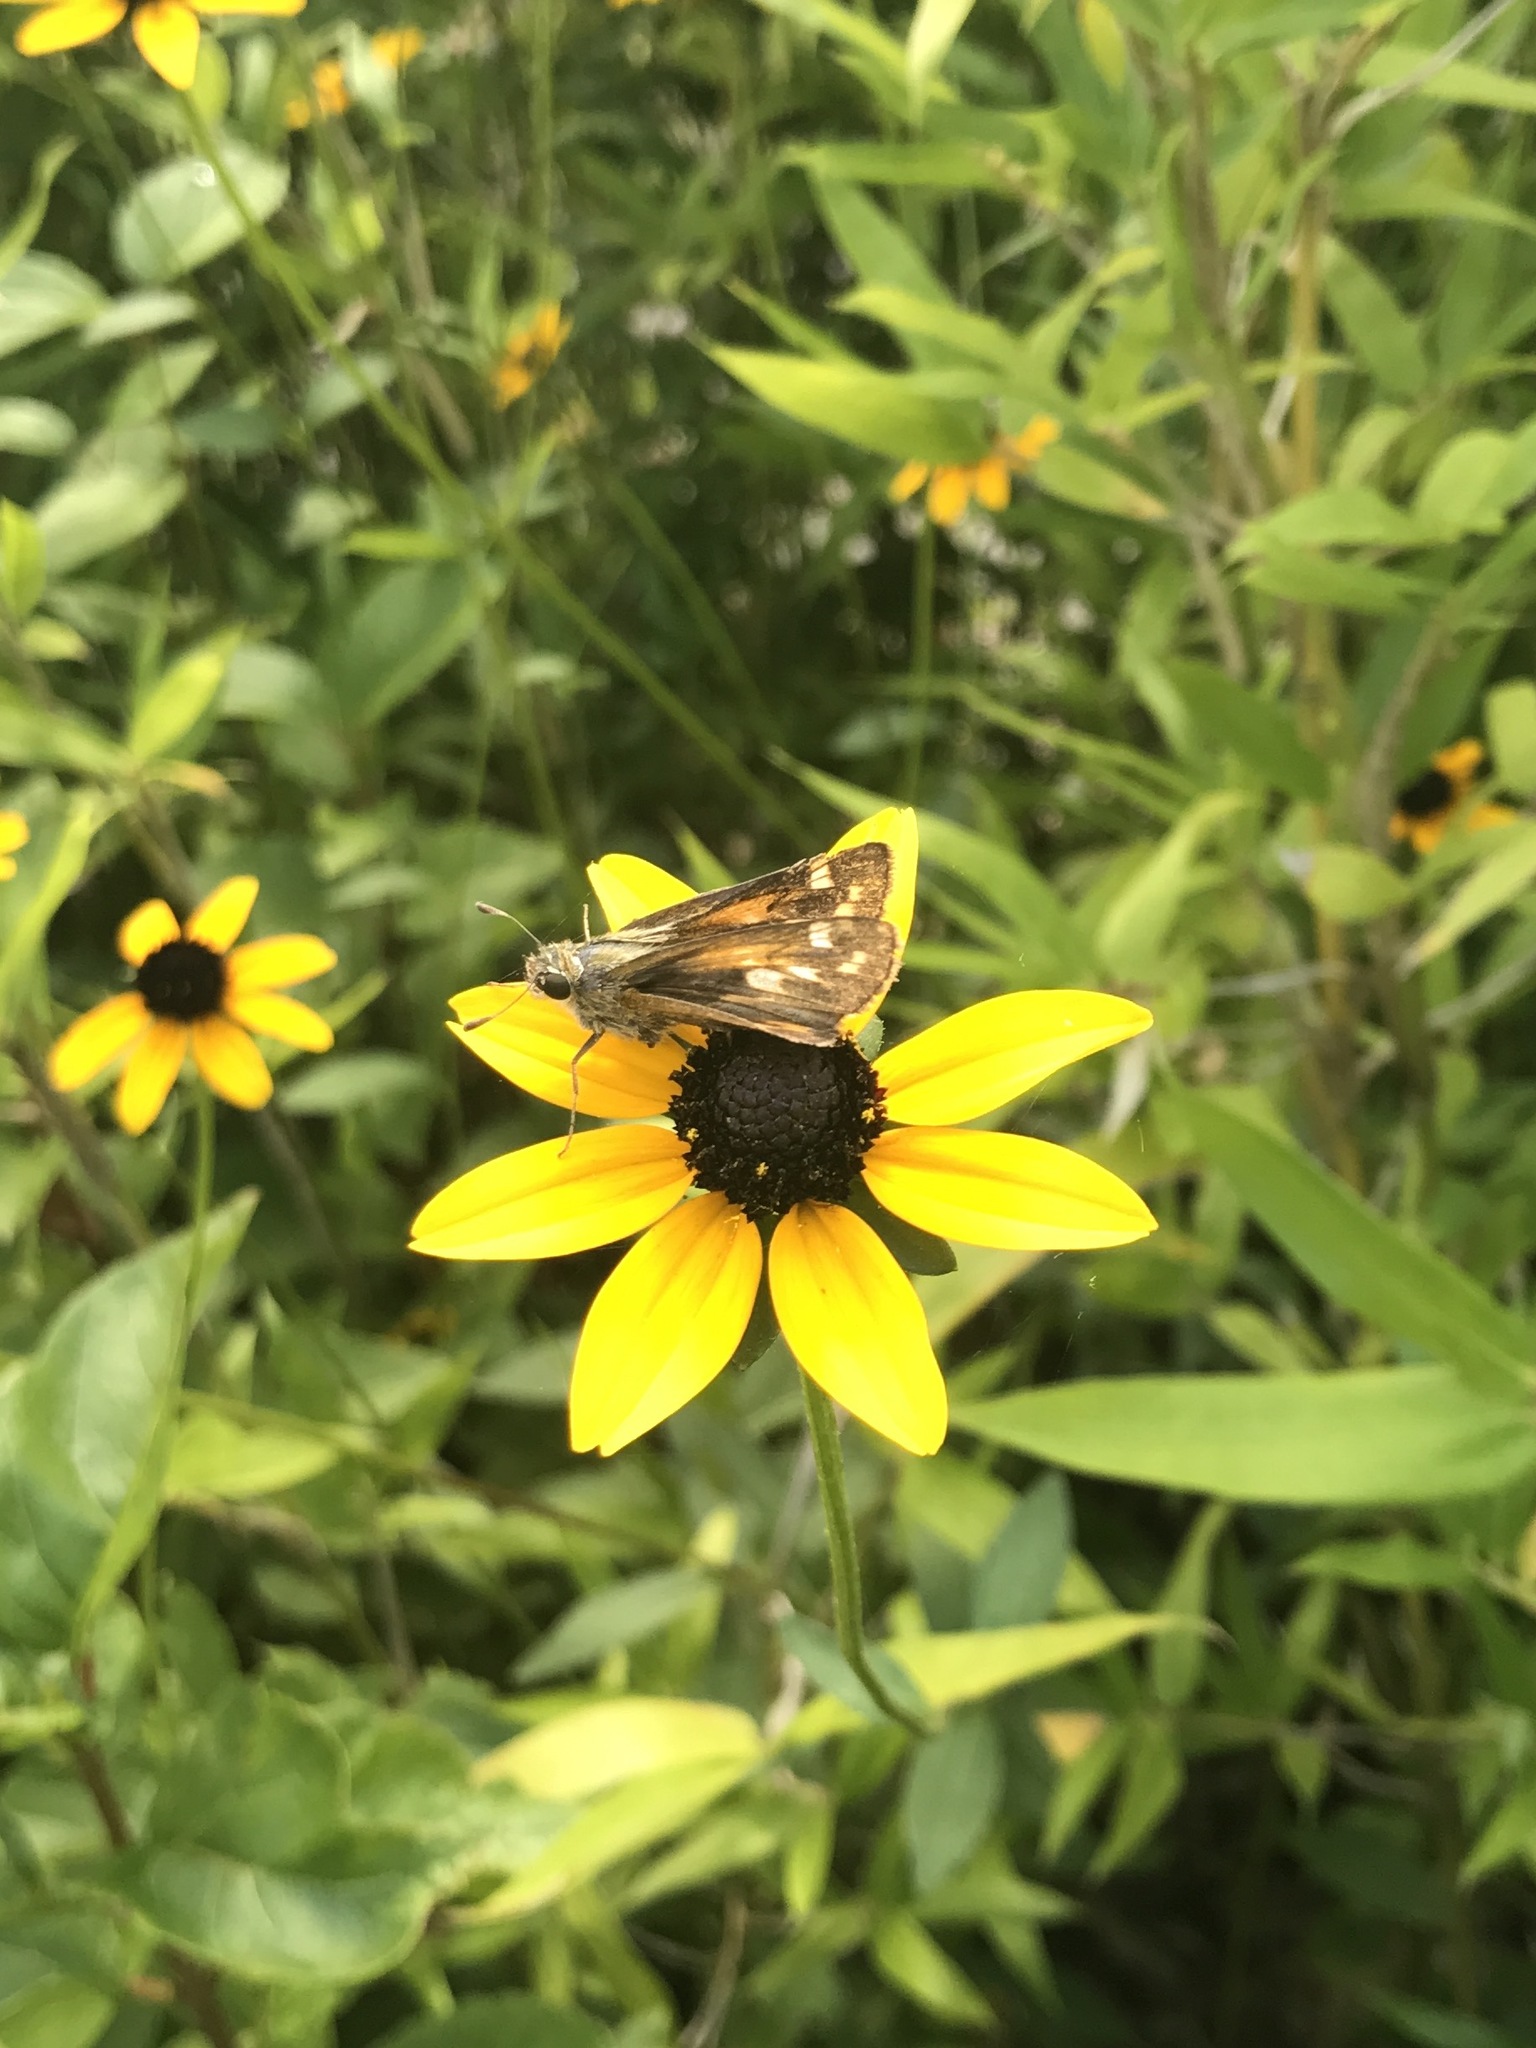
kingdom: Animalia
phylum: Arthropoda
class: Insecta
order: Lepidoptera
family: Hesperiidae
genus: Atalopedes
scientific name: Atalopedes
